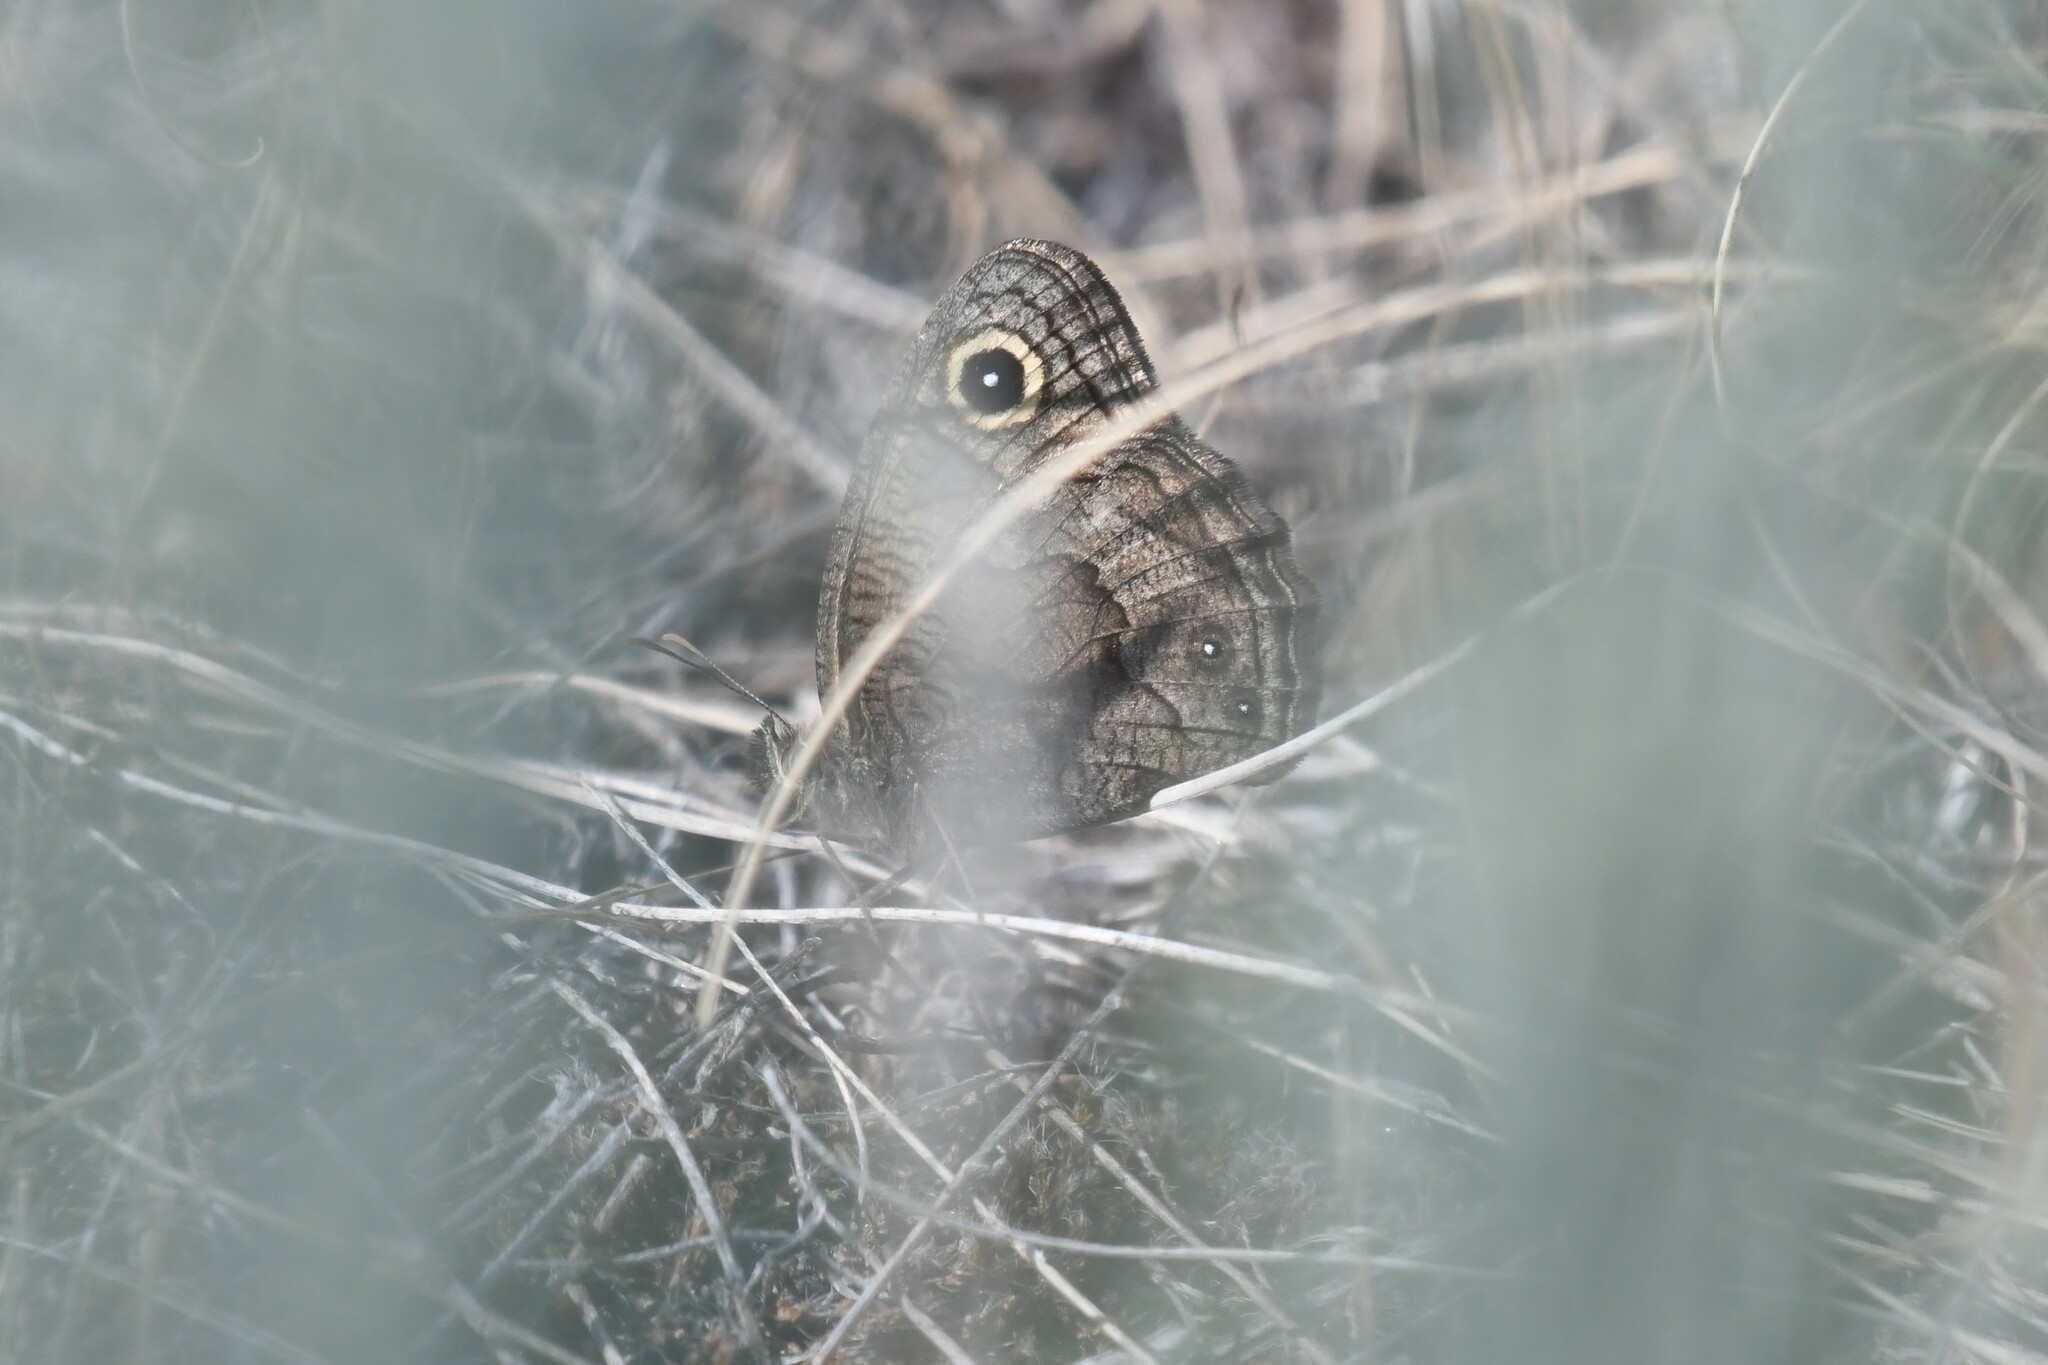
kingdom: Animalia
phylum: Arthropoda
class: Insecta
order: Lepidoptera
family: Nymphalidae
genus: Cercyonis
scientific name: Cercyonis sthenele
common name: Great basin wood-nymph
